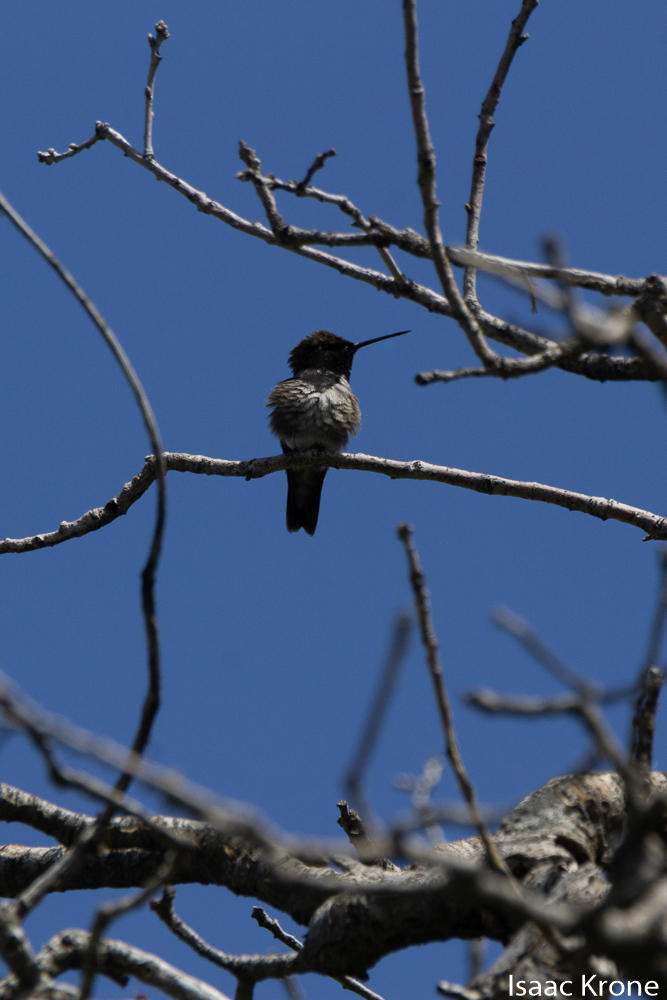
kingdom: Animalia
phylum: Chordata
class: Aves
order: Apodiformes
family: Trochilidae
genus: Archilochus
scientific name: Archilochus alexandri
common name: Black-chinned hummingbird
